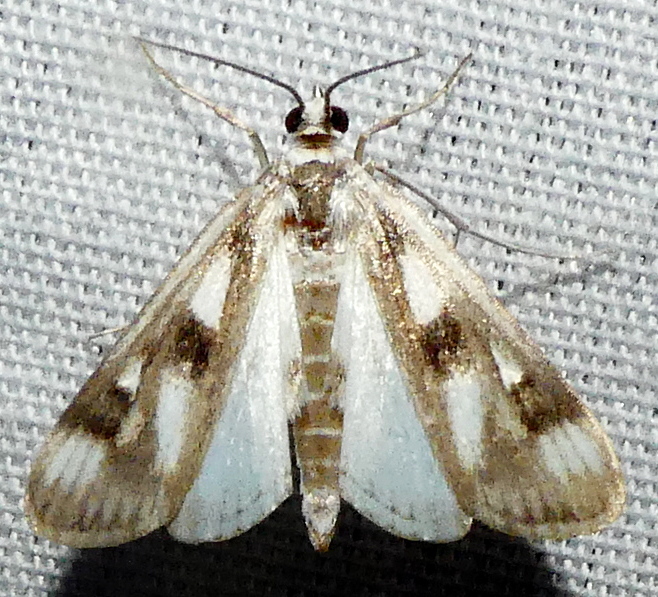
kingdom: Animalia
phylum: Arthropoda
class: Insecta
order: Lepidoptera
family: Crambidae
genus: Parapoynx
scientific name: Parapoynx maculalis
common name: Polymorphic pondweed moth
